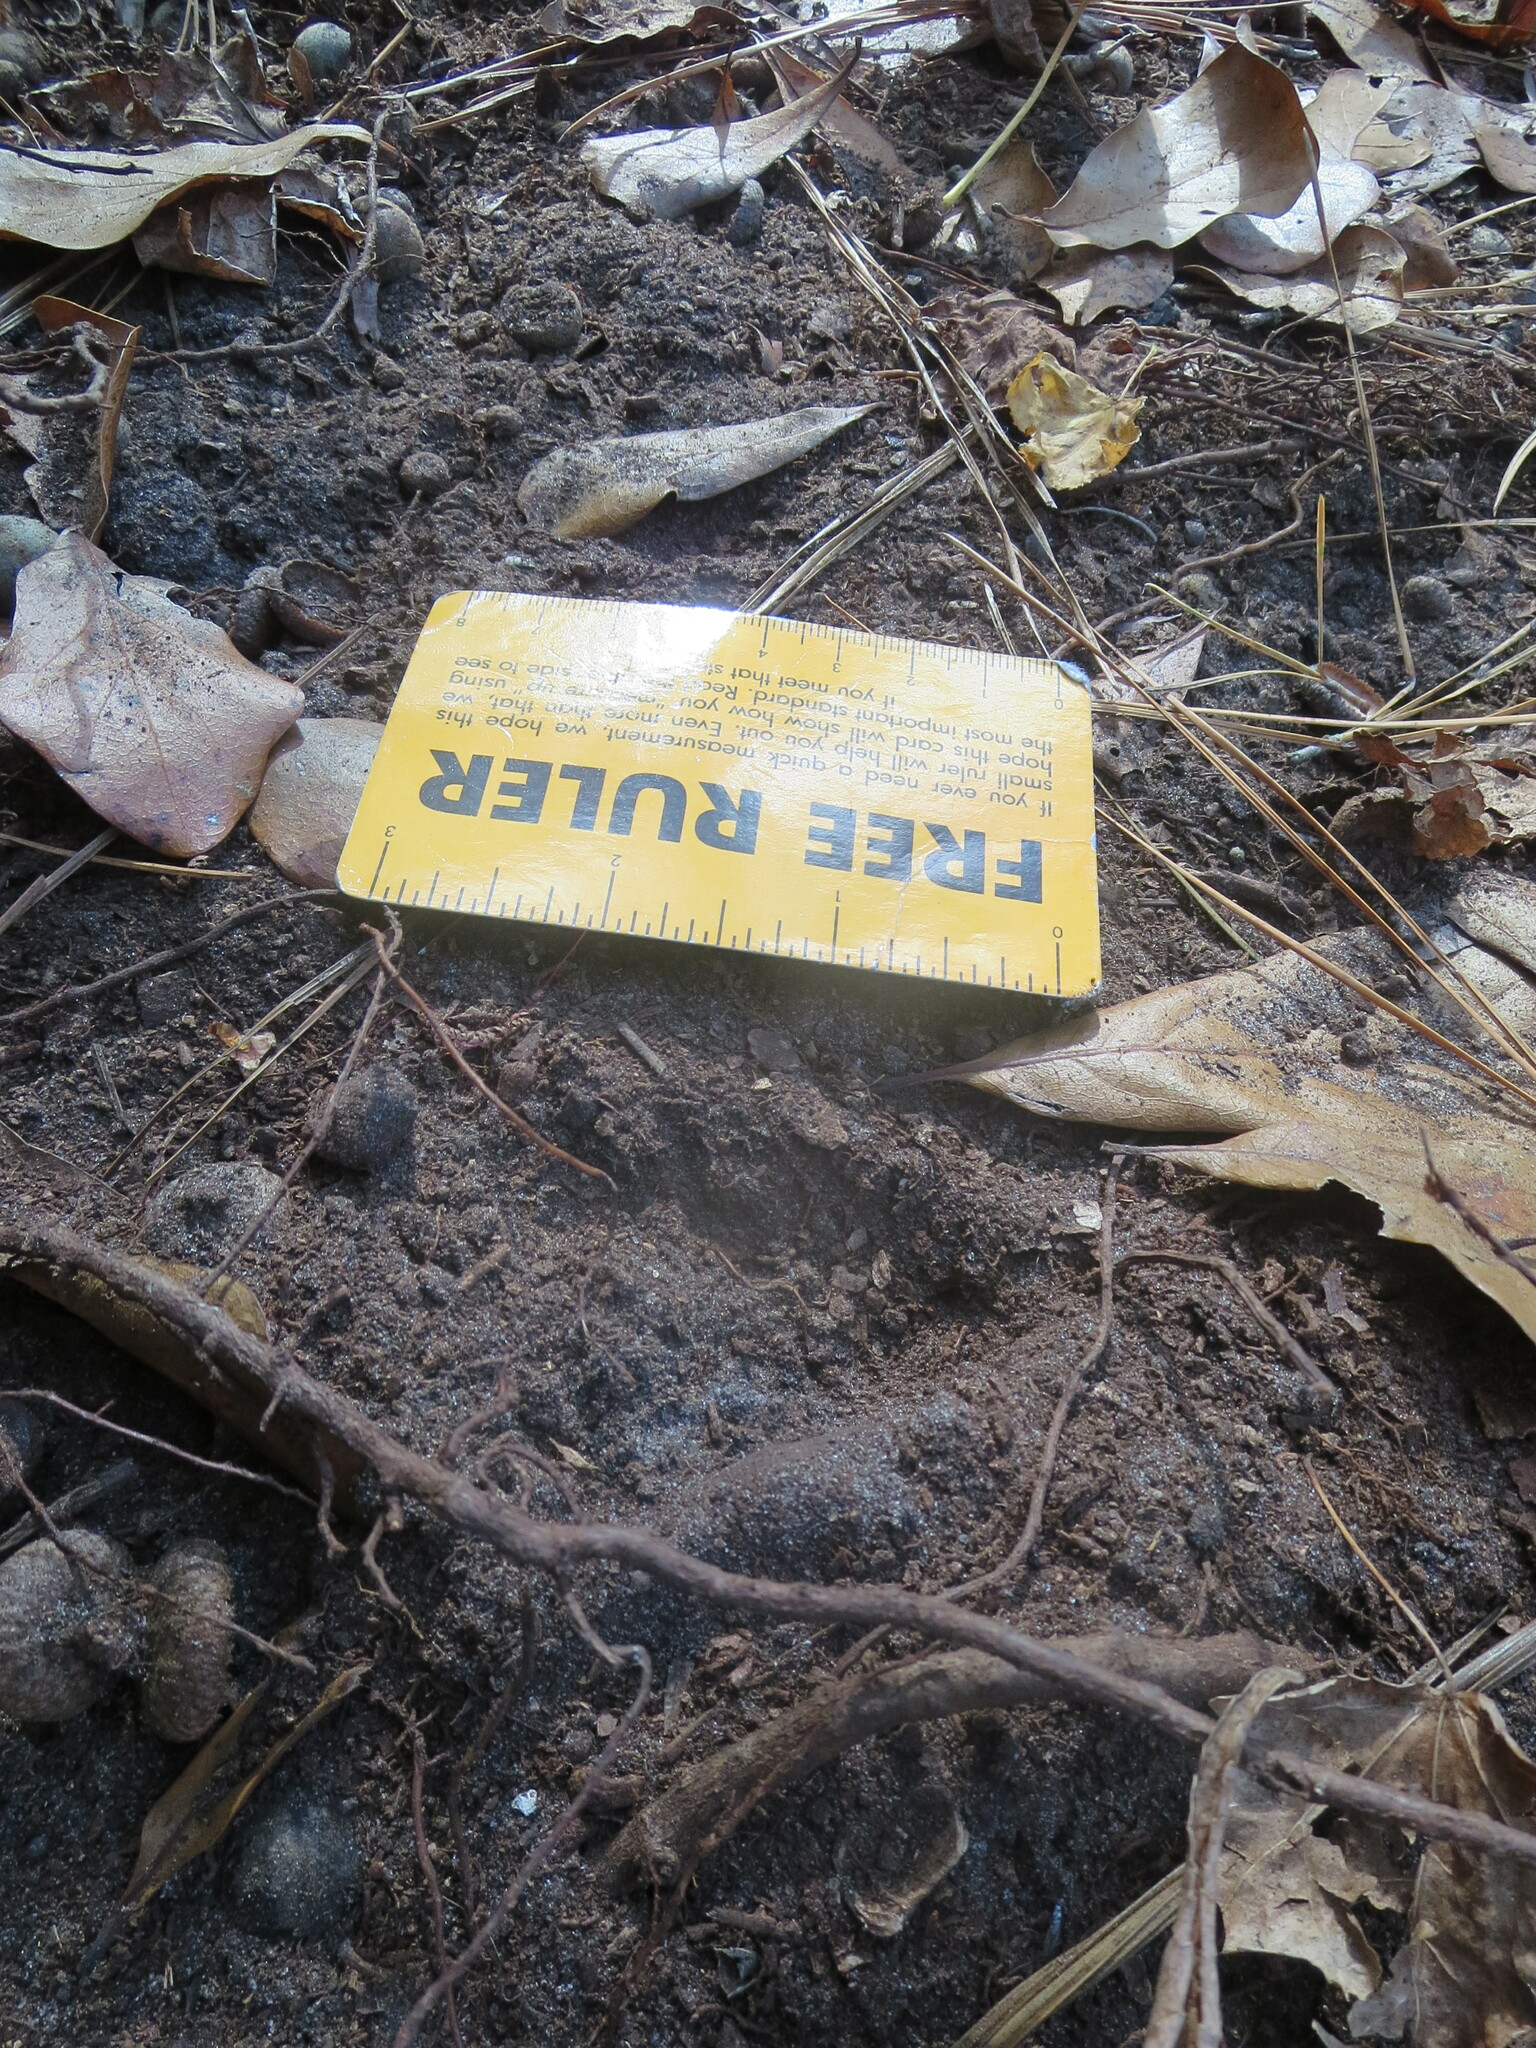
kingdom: Animalia
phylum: Chordata
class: Mammalia
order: Artiodactyla
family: Cervidae
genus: Odocoileus
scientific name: Odocoileus virginianus
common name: White-tailed deer
